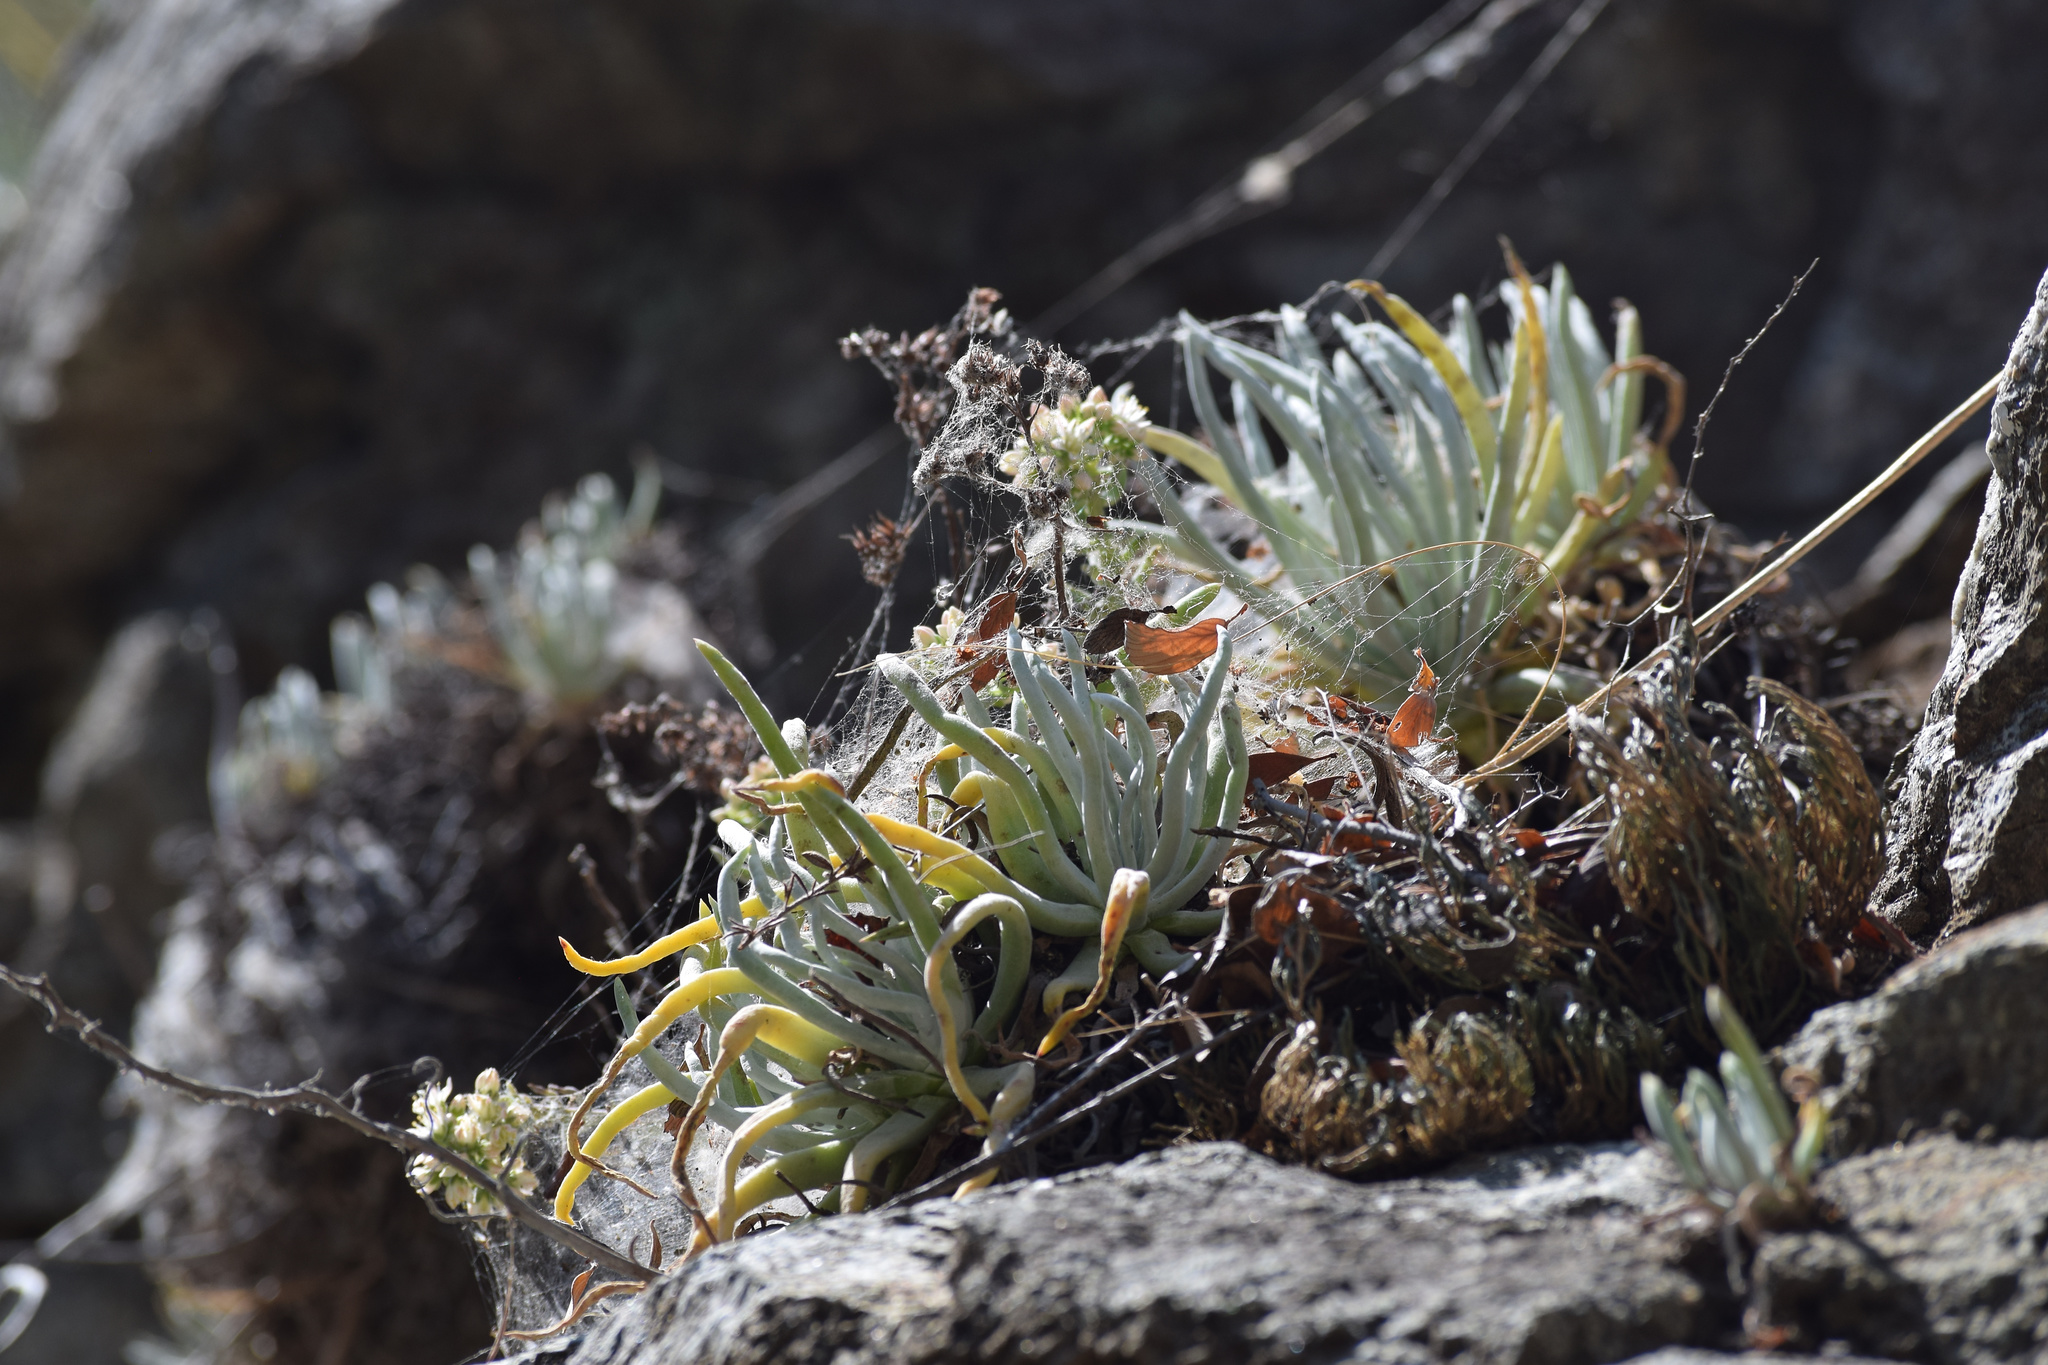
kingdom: Plantae
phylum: Tracheophyta
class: Magnoliopsida
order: Saxifragales
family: Crassulaceae
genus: Dudleya
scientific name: Dudleya densiflora
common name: San gabriel mountains dudleya
